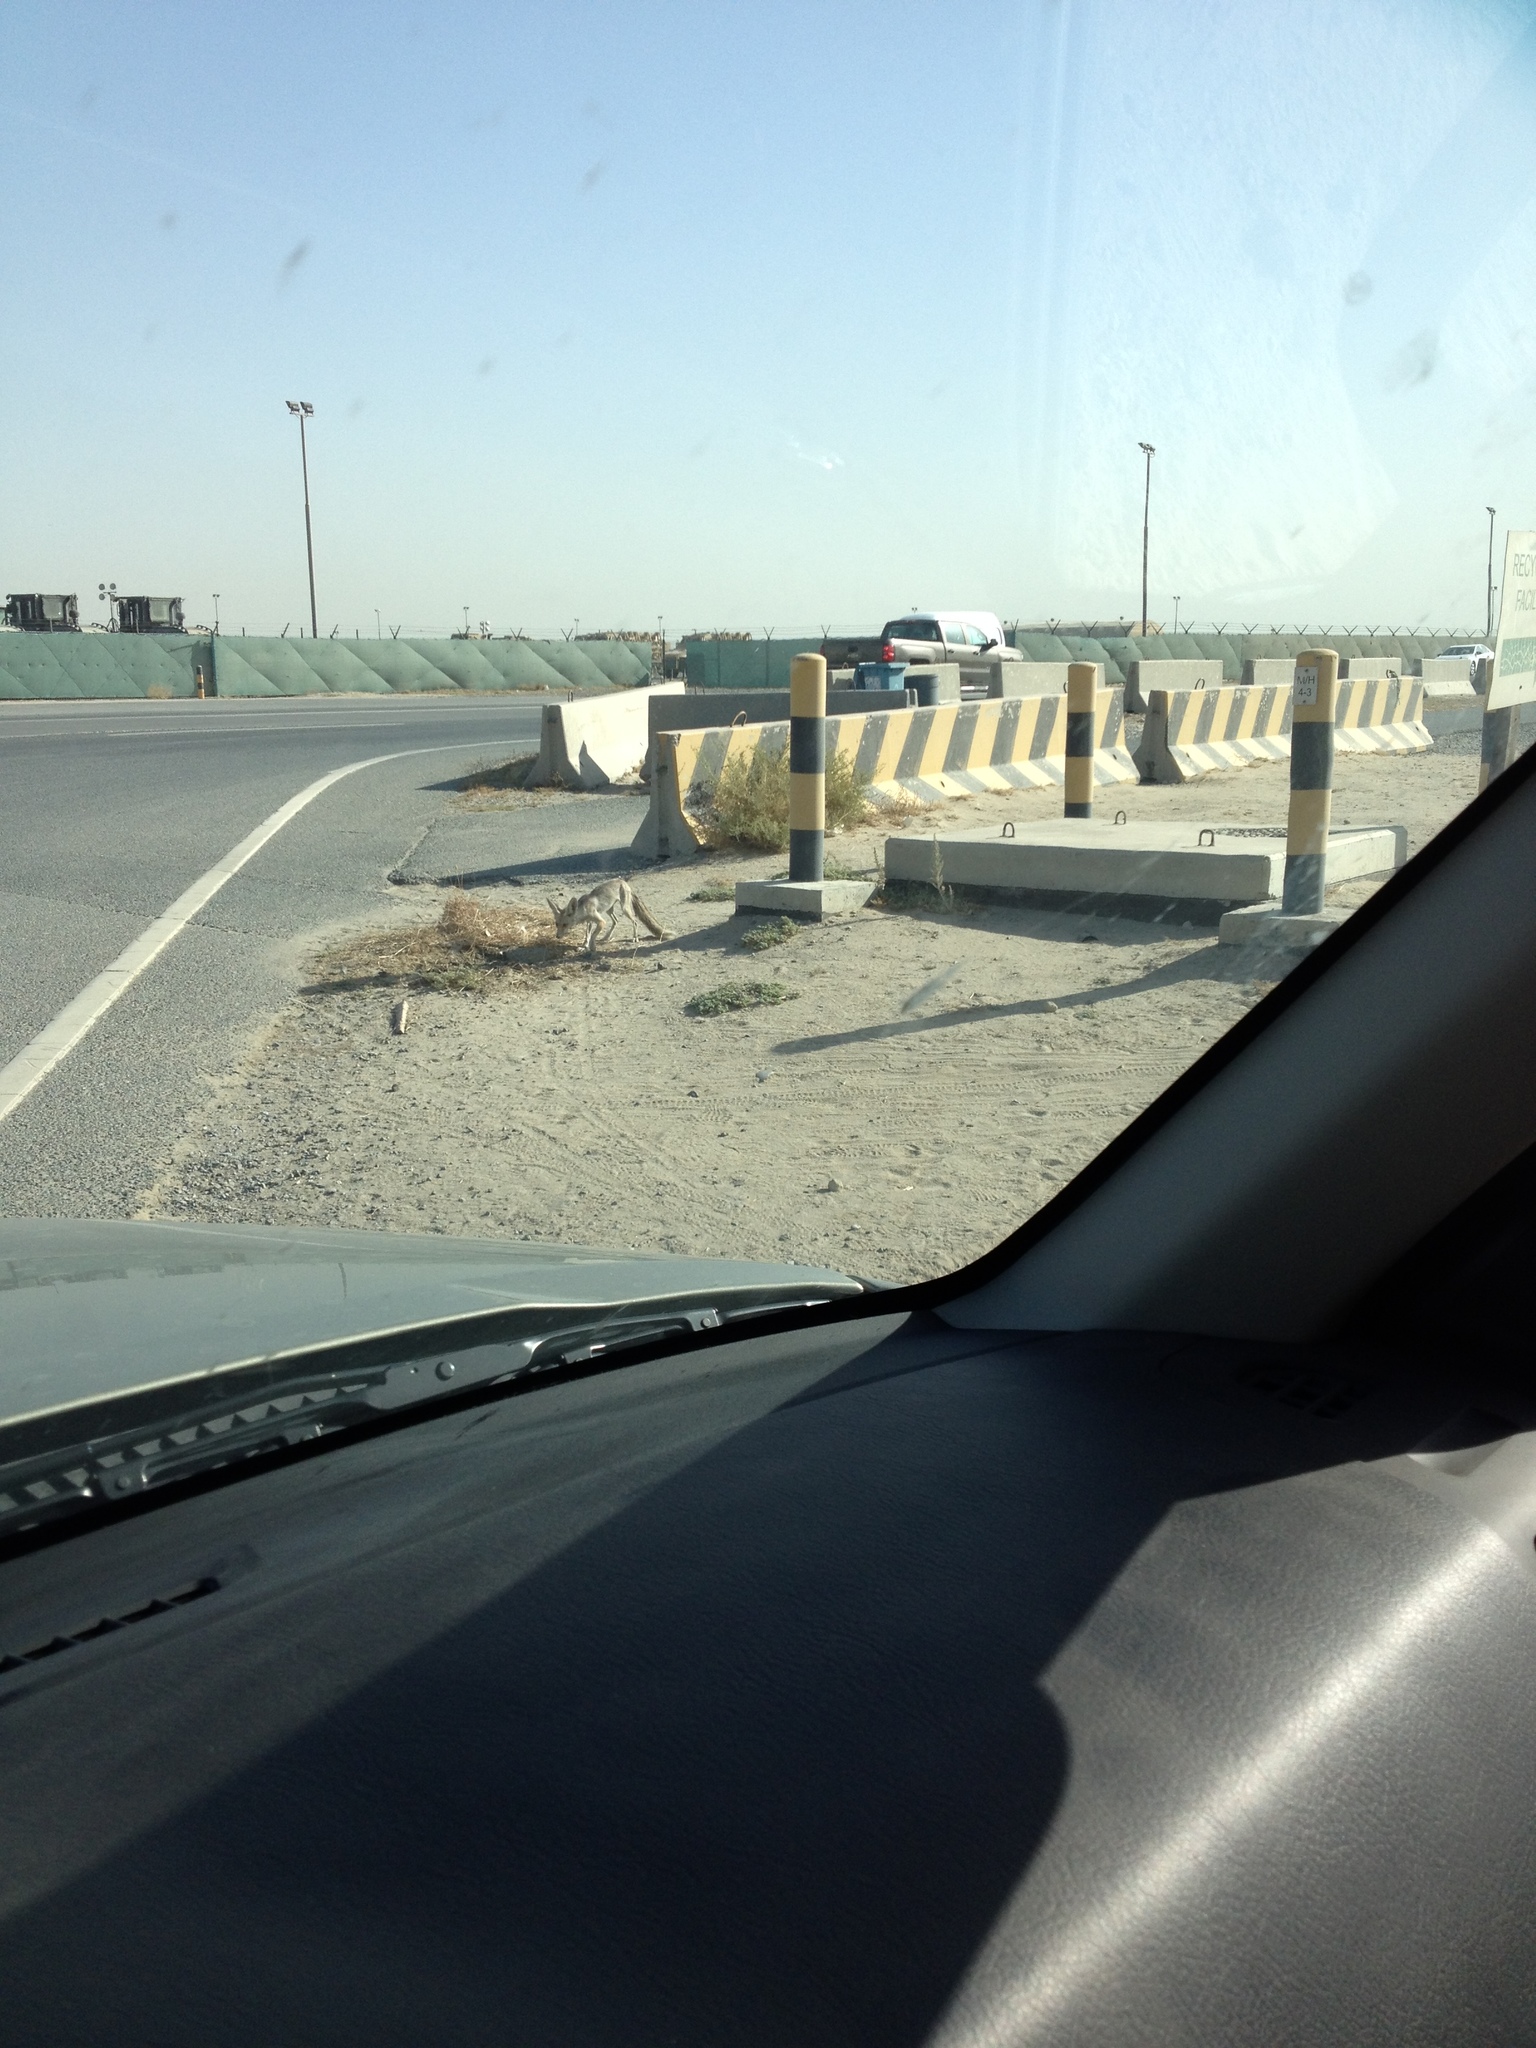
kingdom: Animalia
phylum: Chordata
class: Mammalia
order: Carnivora
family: Canidae
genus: Vulpes
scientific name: Vulpes vulpes
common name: Red fox
